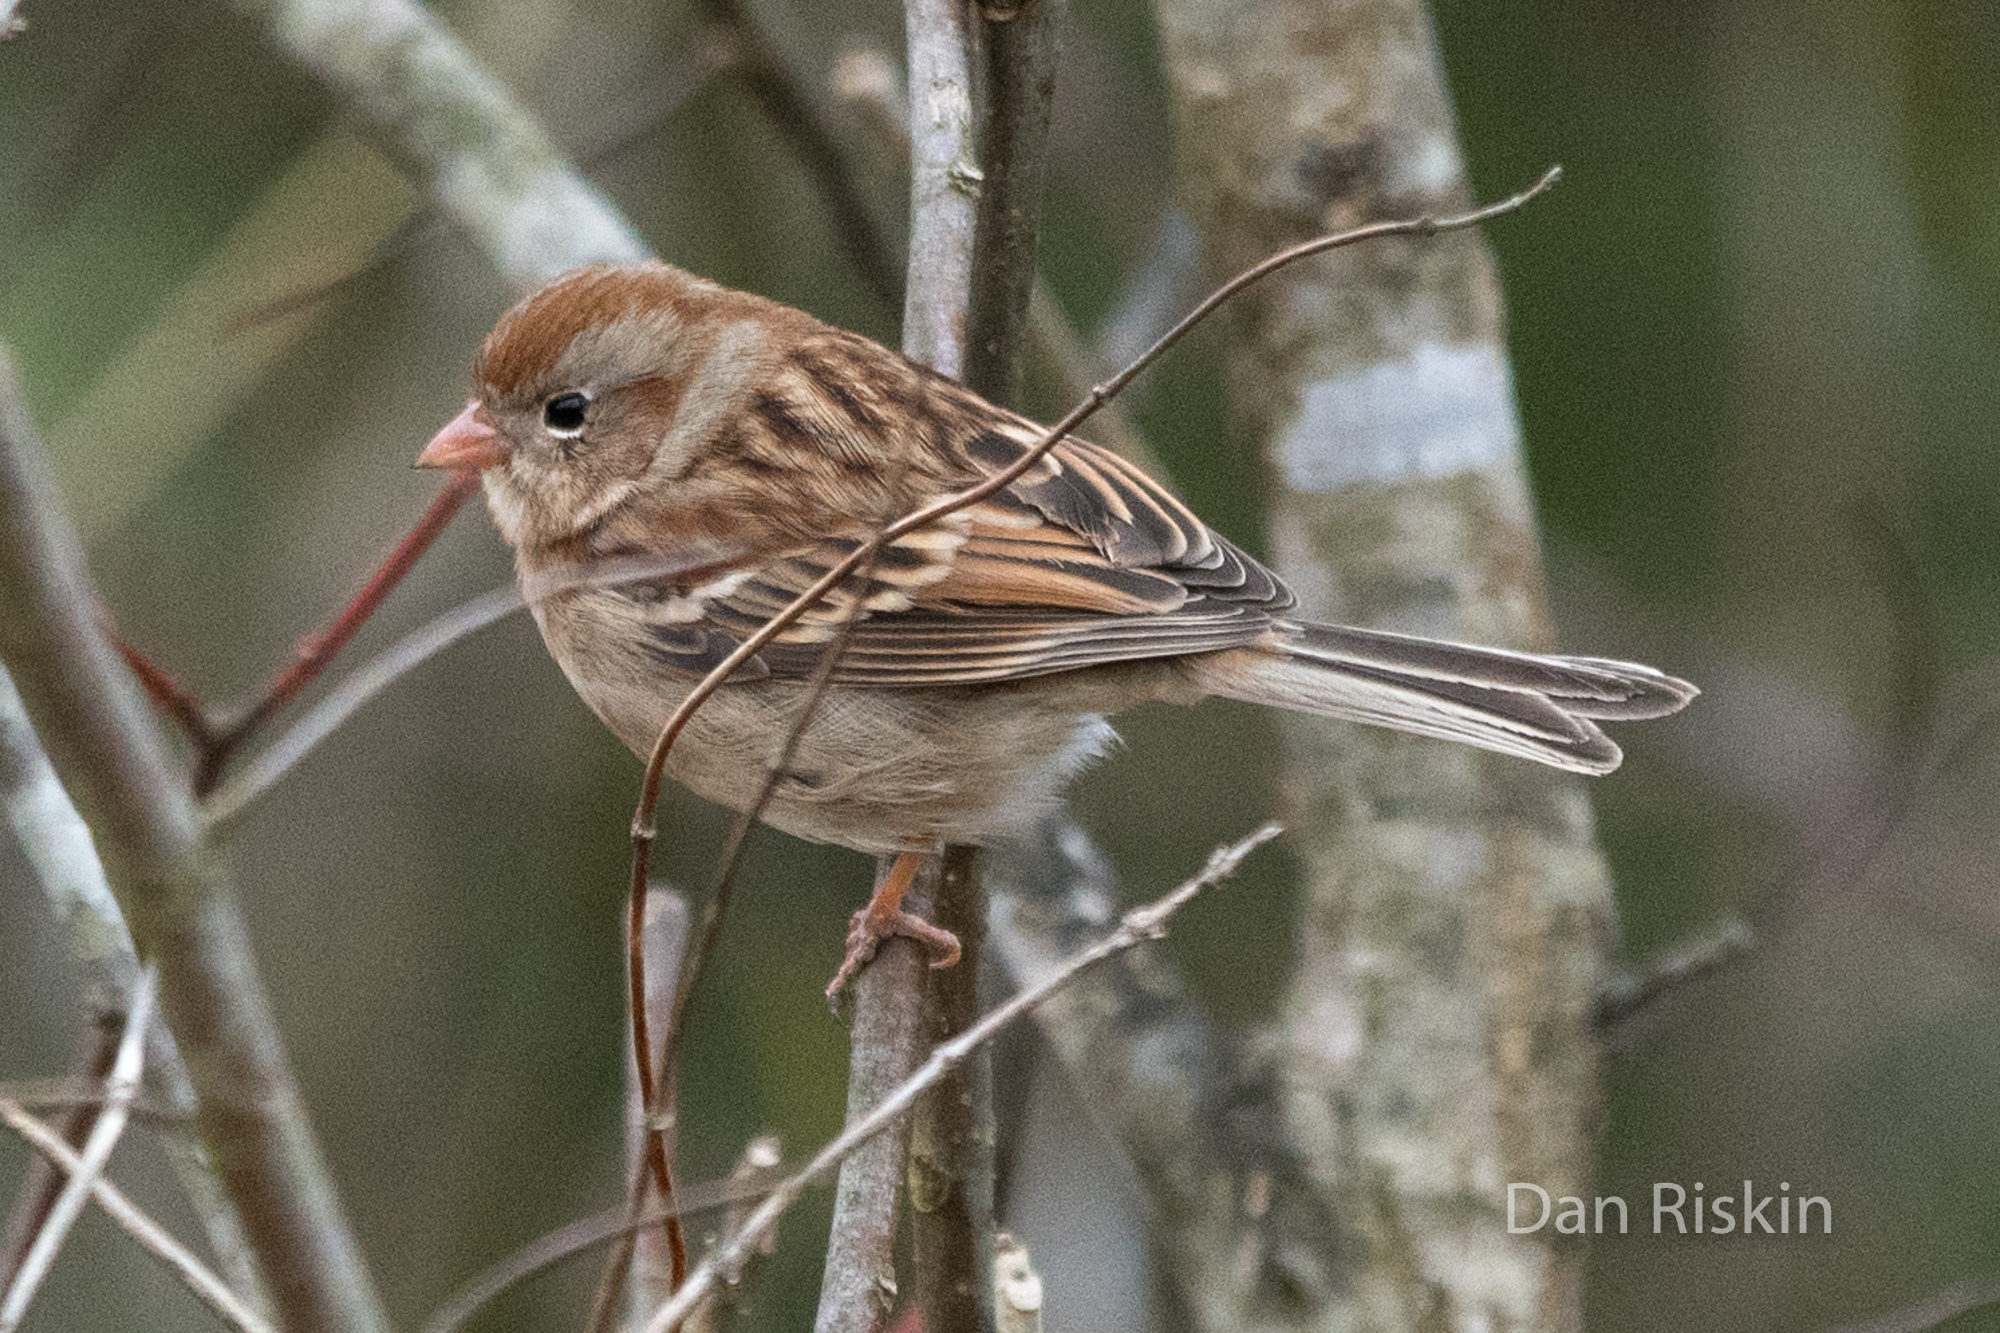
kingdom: Animalia
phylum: Chordata
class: Aves
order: Passeriformes
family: Passerellidae
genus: Spizella
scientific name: Spizella pusilla
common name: Field sparrow
